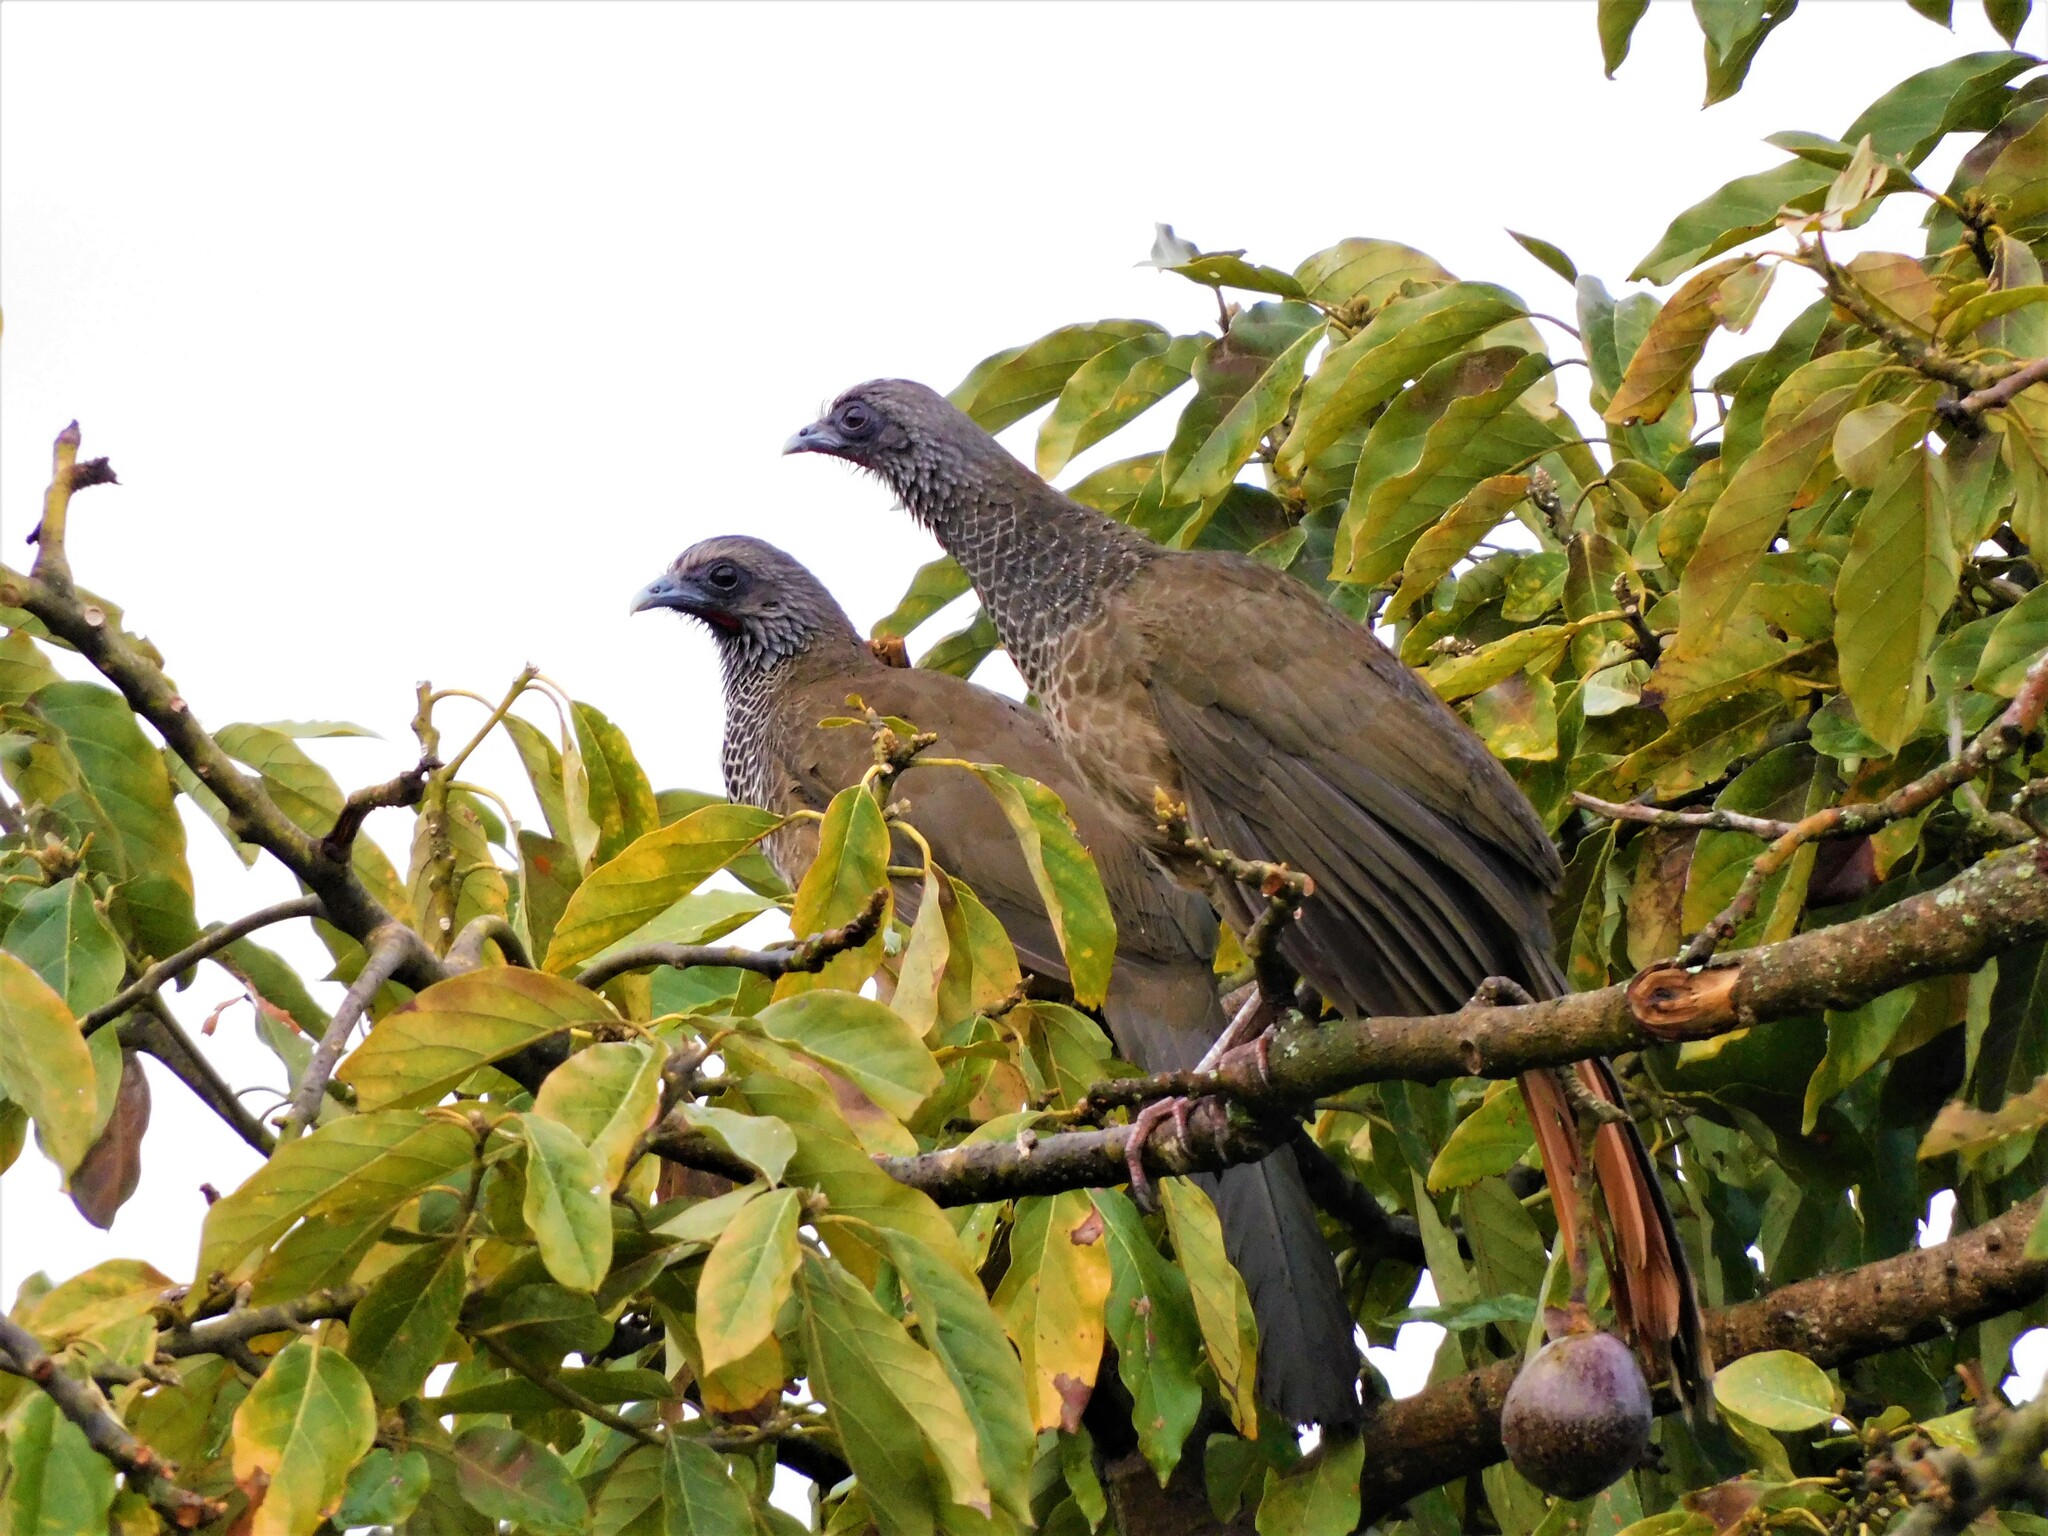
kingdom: Animalia
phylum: Chordata
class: Aves
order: Galliformes
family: Cracidae
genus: Ortalis
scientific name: Ortalis columbiana
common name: Colombian chachalaca
